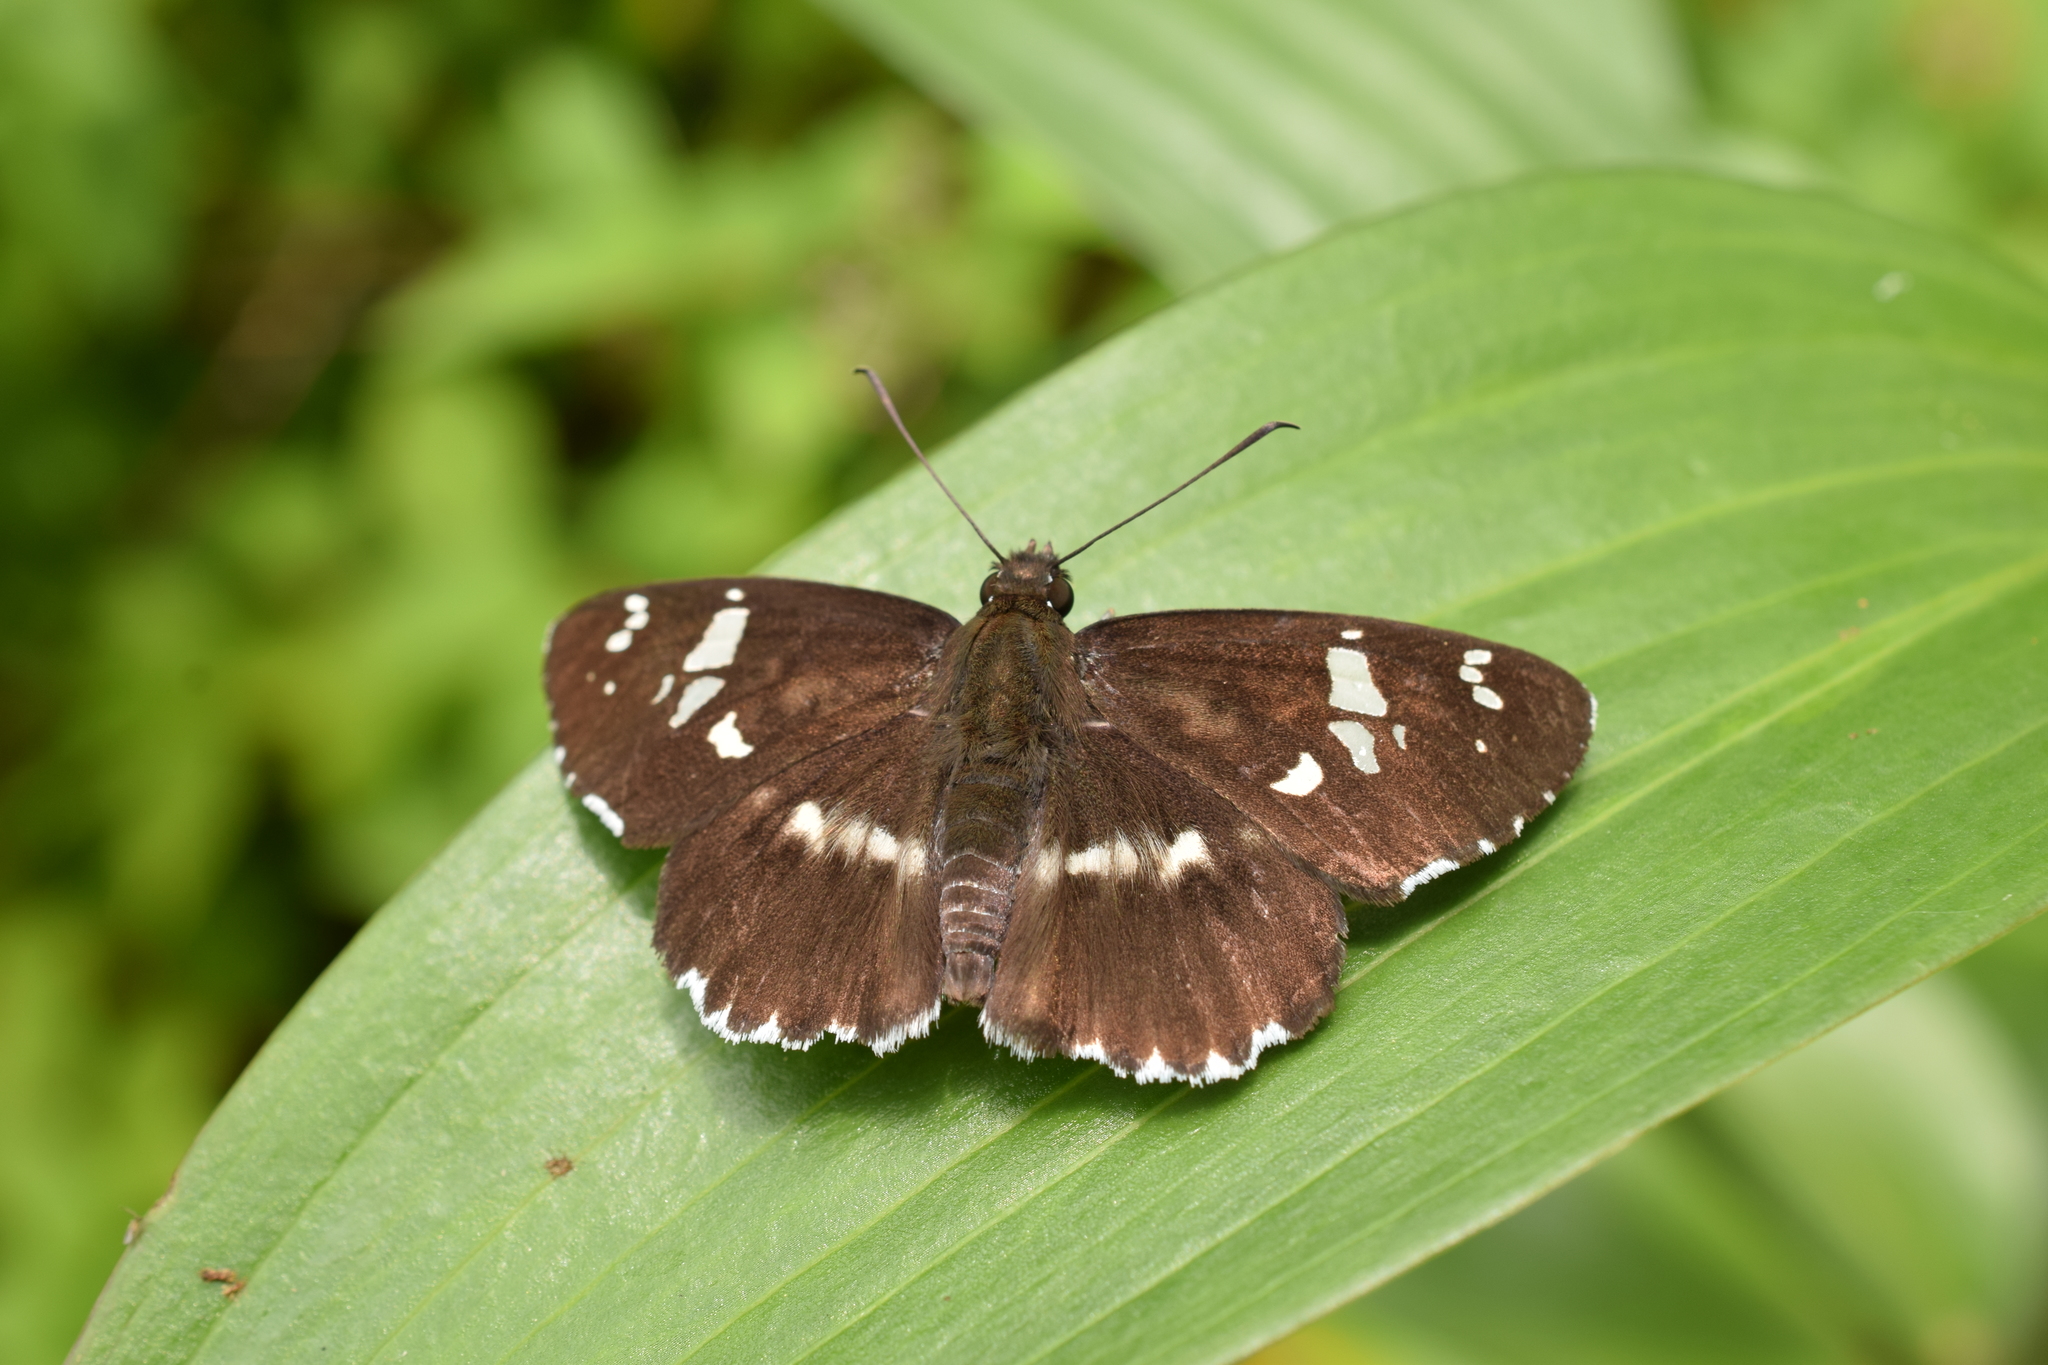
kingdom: Animalia
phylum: Arthropoda
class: Insecta
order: Lepidoptera
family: Hesperiidae
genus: Daimio
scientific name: Daimio tethys
